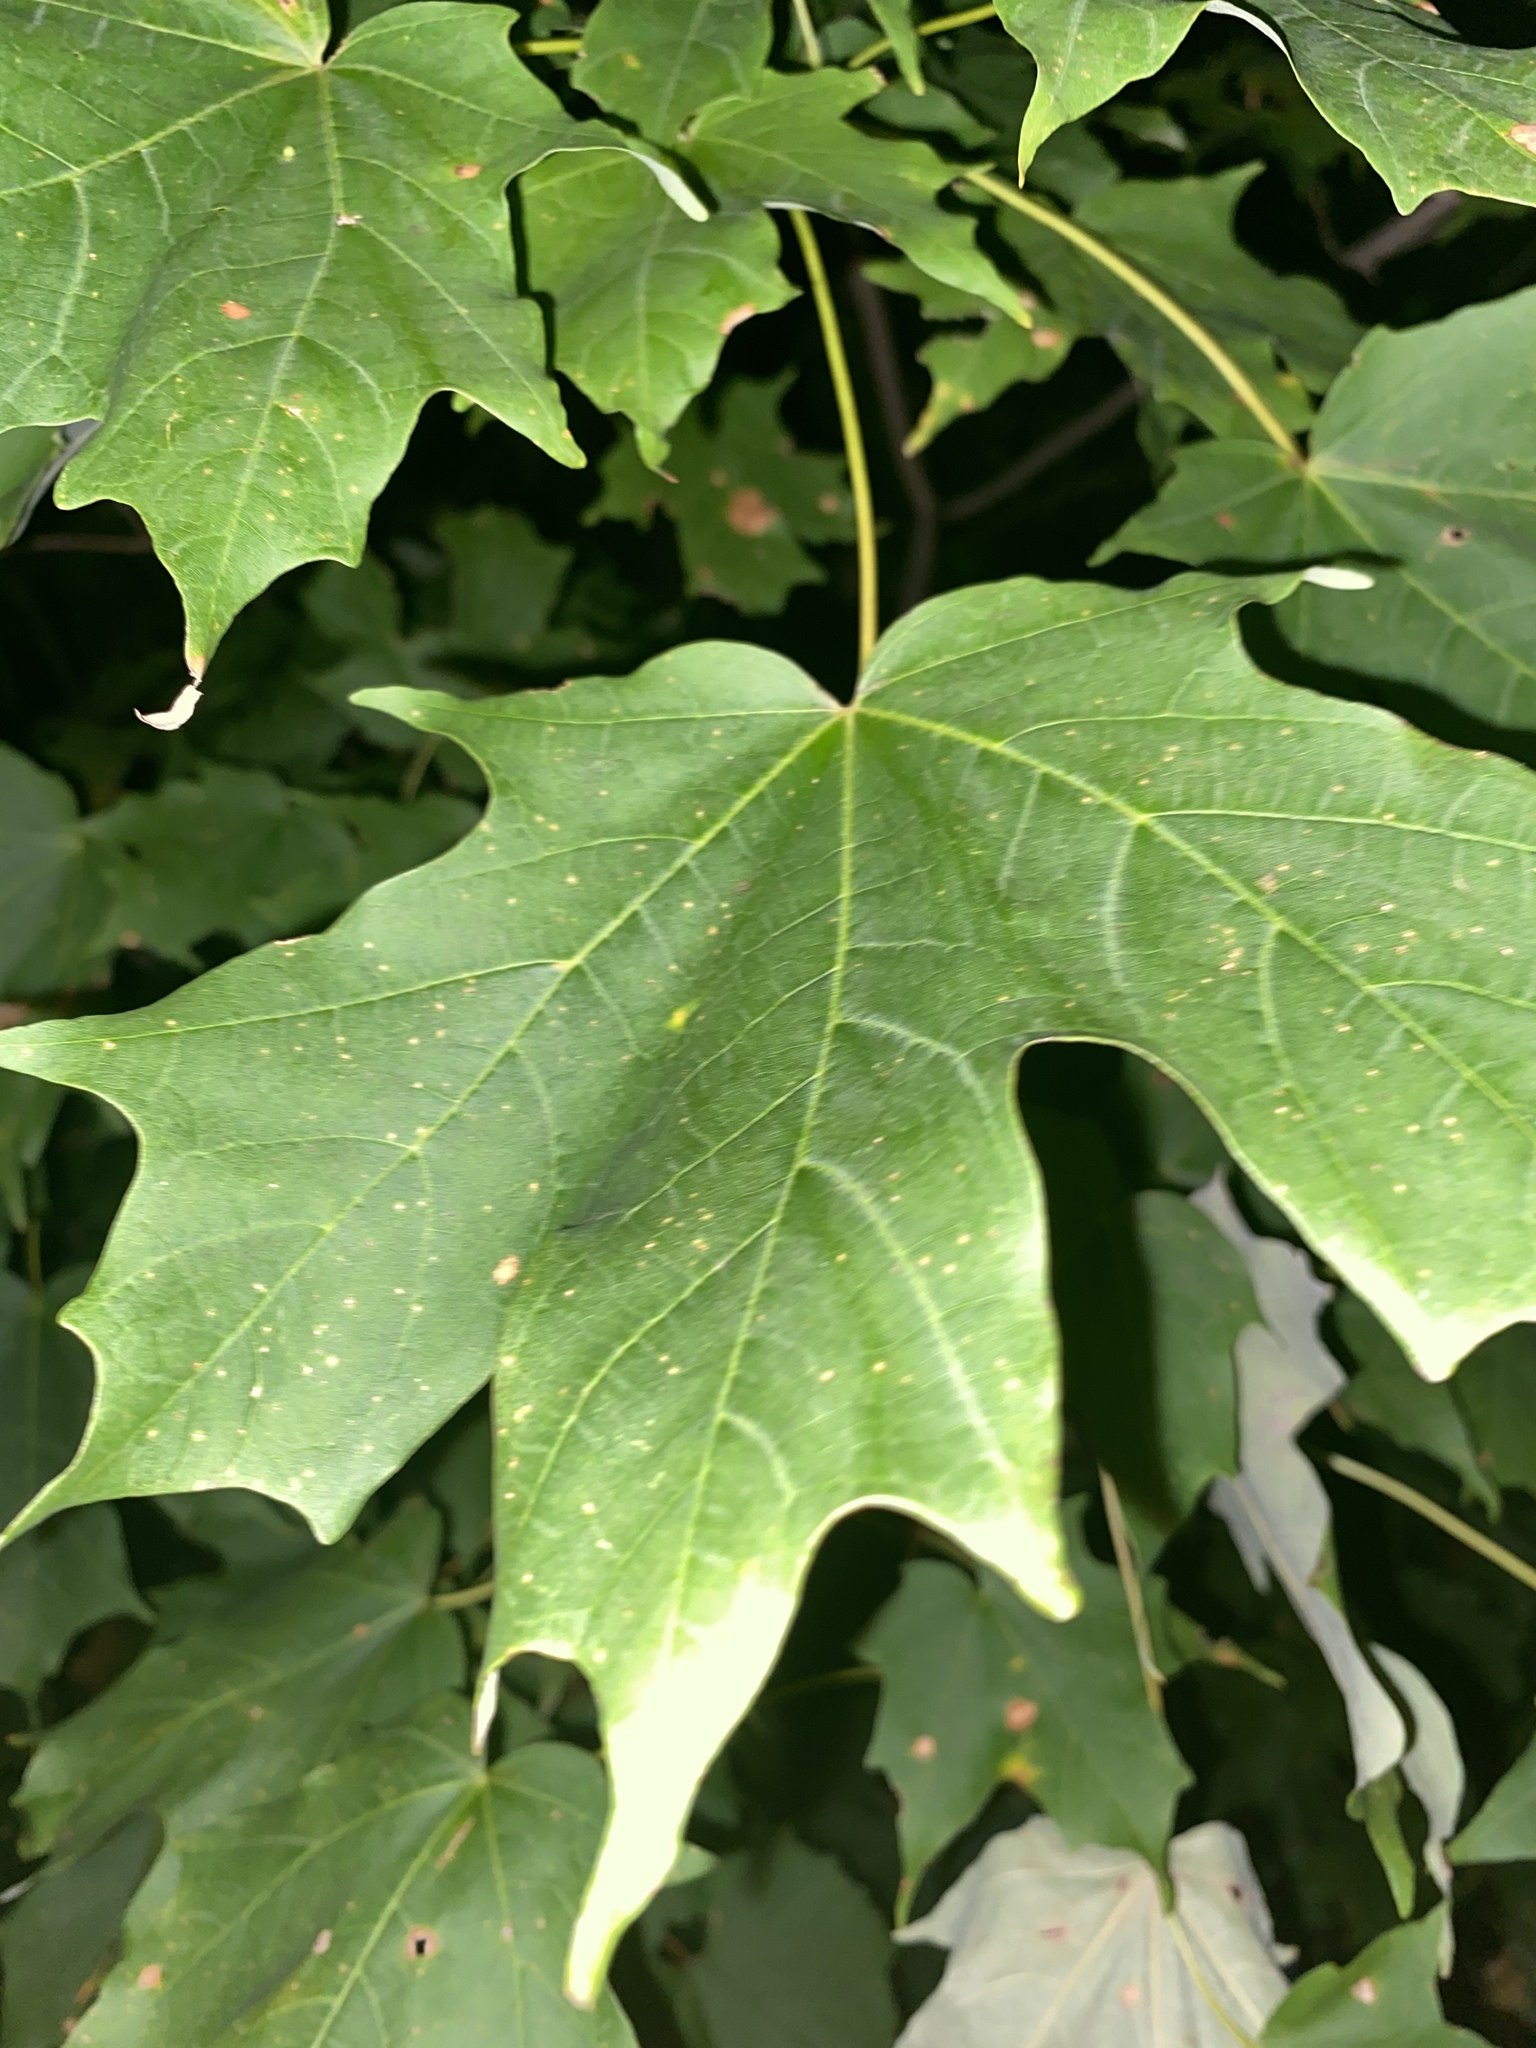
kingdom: Plantae
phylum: Tracheophyta
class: Magnoliopsida
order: Sapindales
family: Sapindaceae
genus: Acer
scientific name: Acer saccharum
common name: Sugar maple
